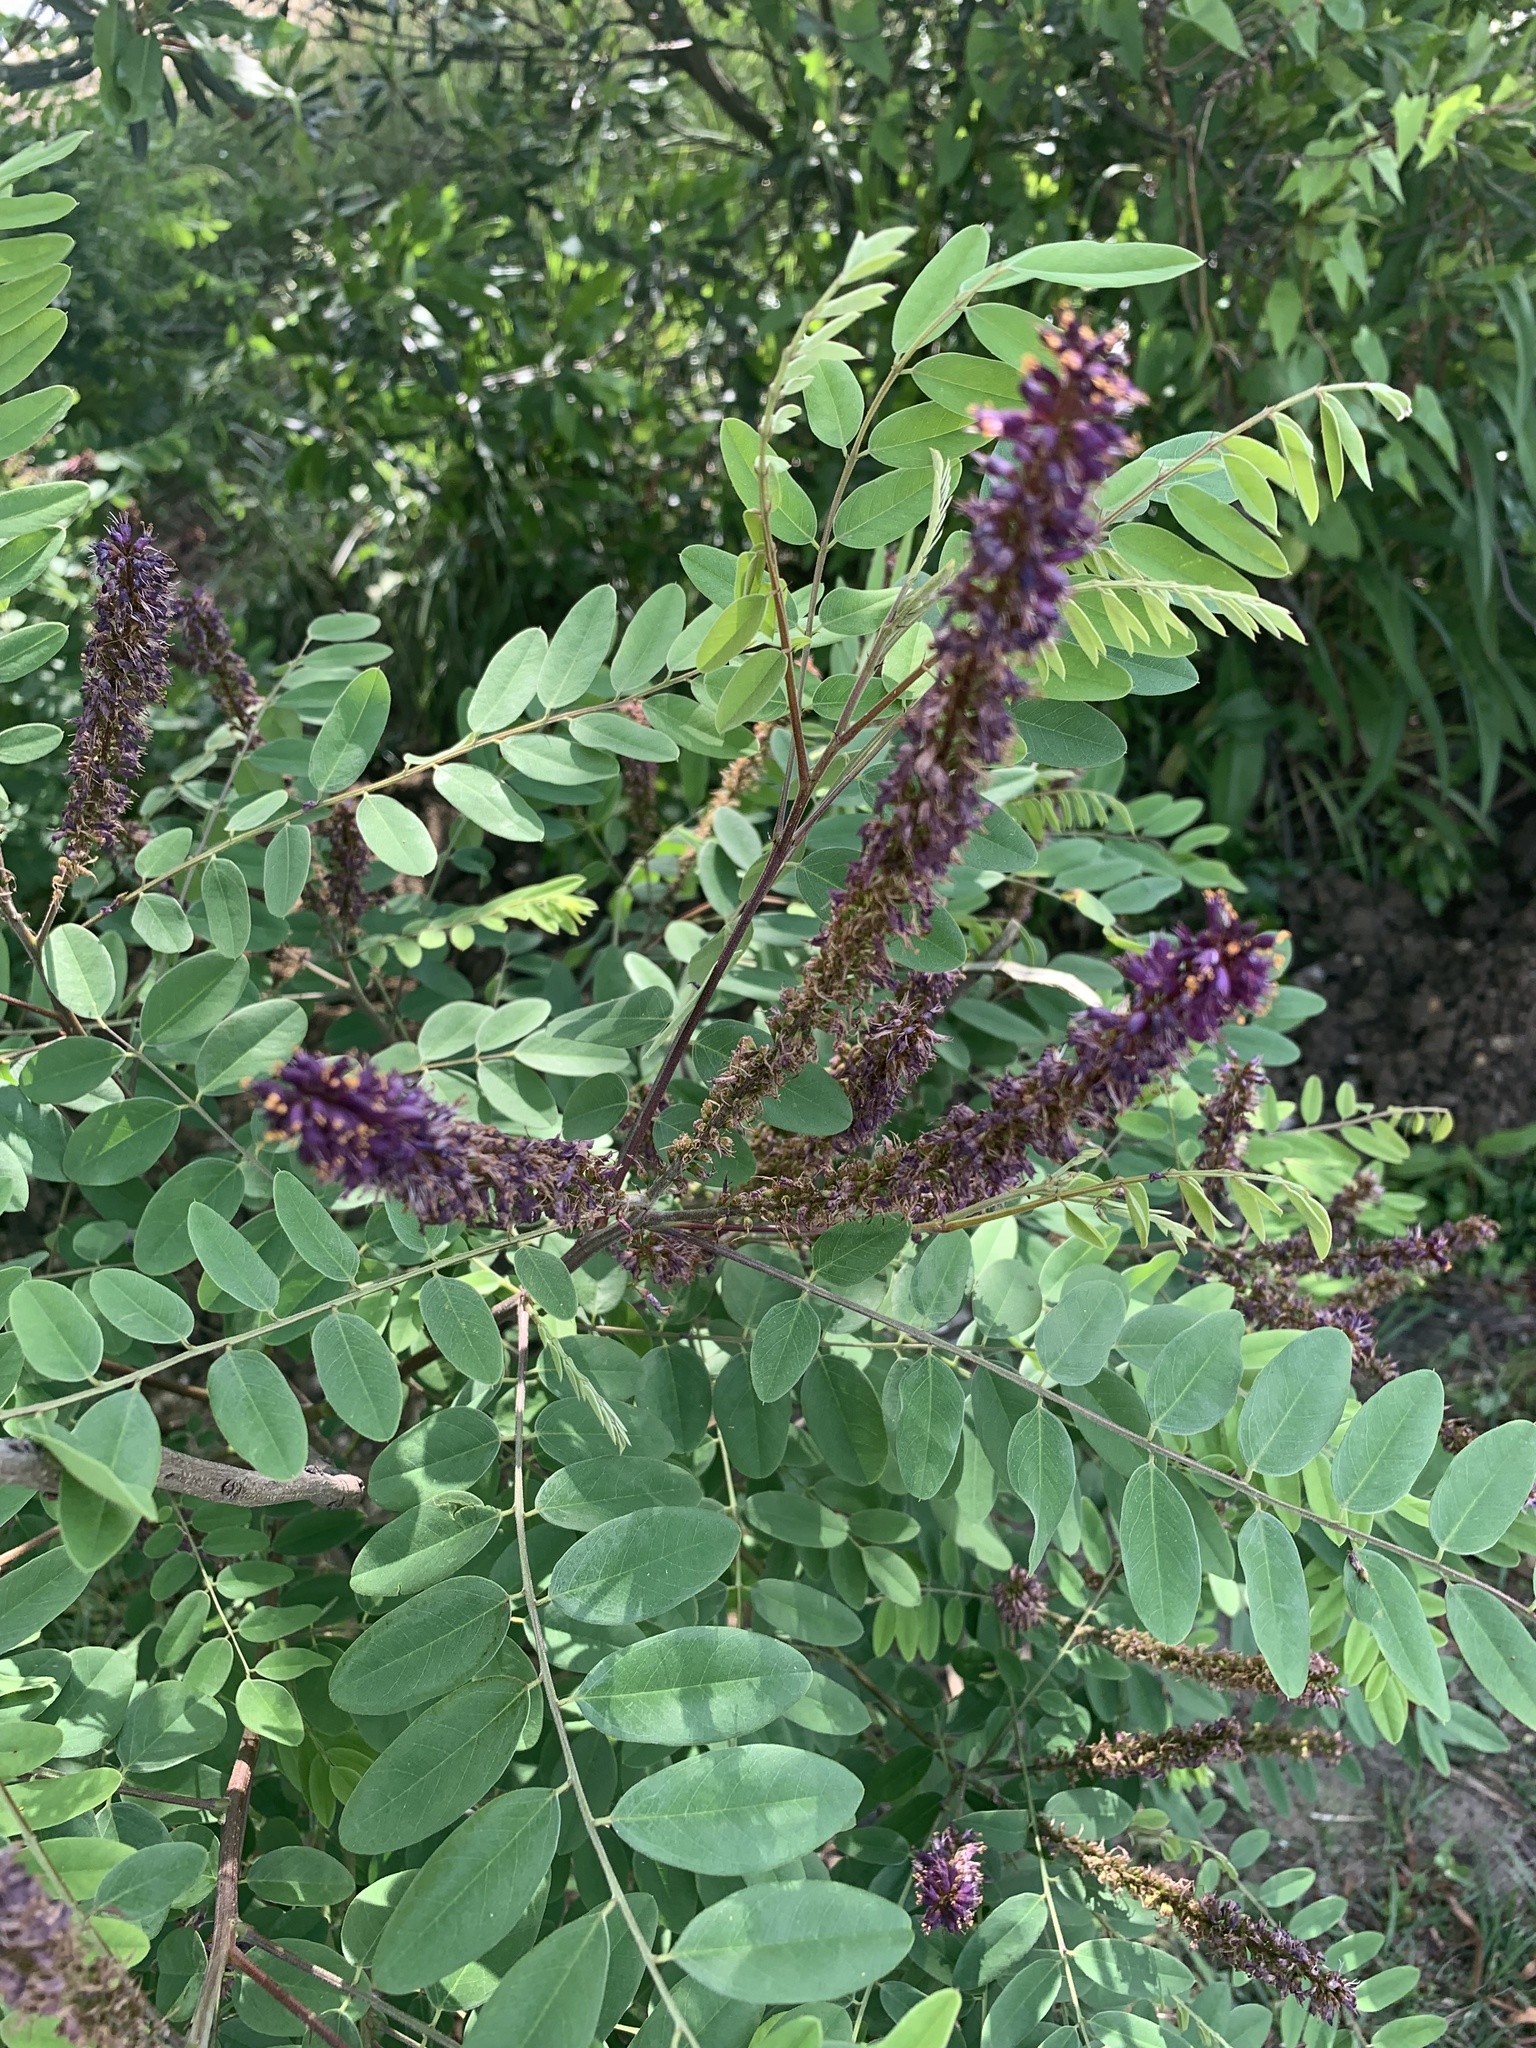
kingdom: Plantae
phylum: Tracheophyta
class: Magnoliopsida
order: Fabales
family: Fabaceae
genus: Amorpha
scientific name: Amorpha fruticosa
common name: False indigo
